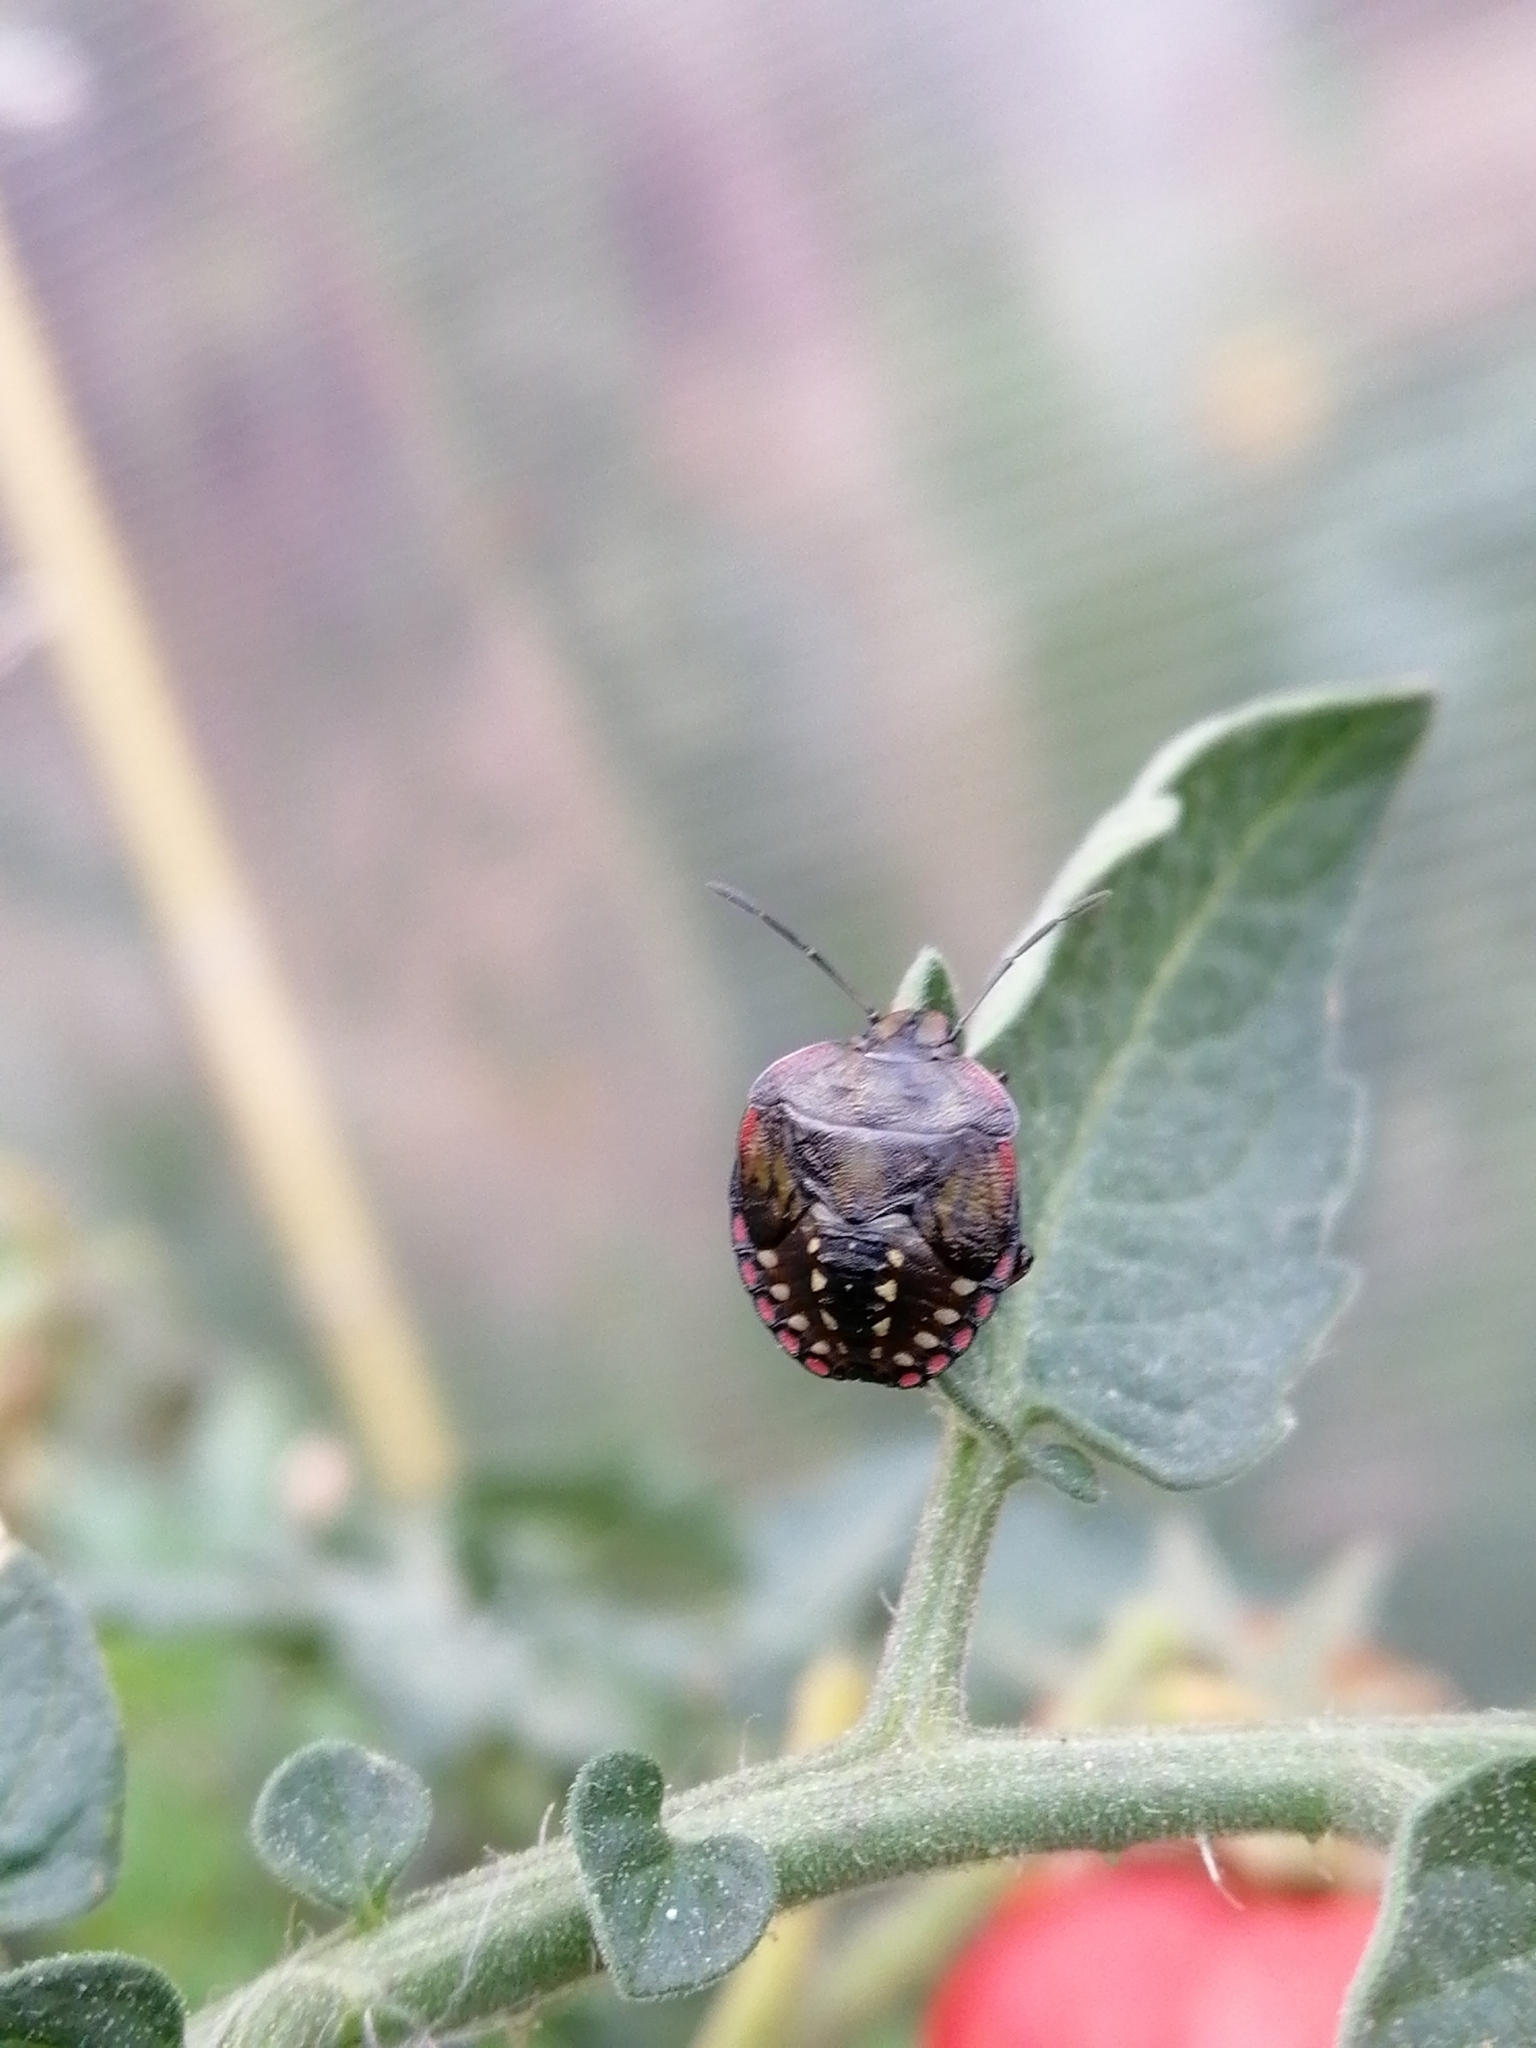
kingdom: Animalia
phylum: Arthropoda
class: Insecta
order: Hemiptera
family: Pentatomidae
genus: Nezara
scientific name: Nezara viridula
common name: Southern green stink bug
